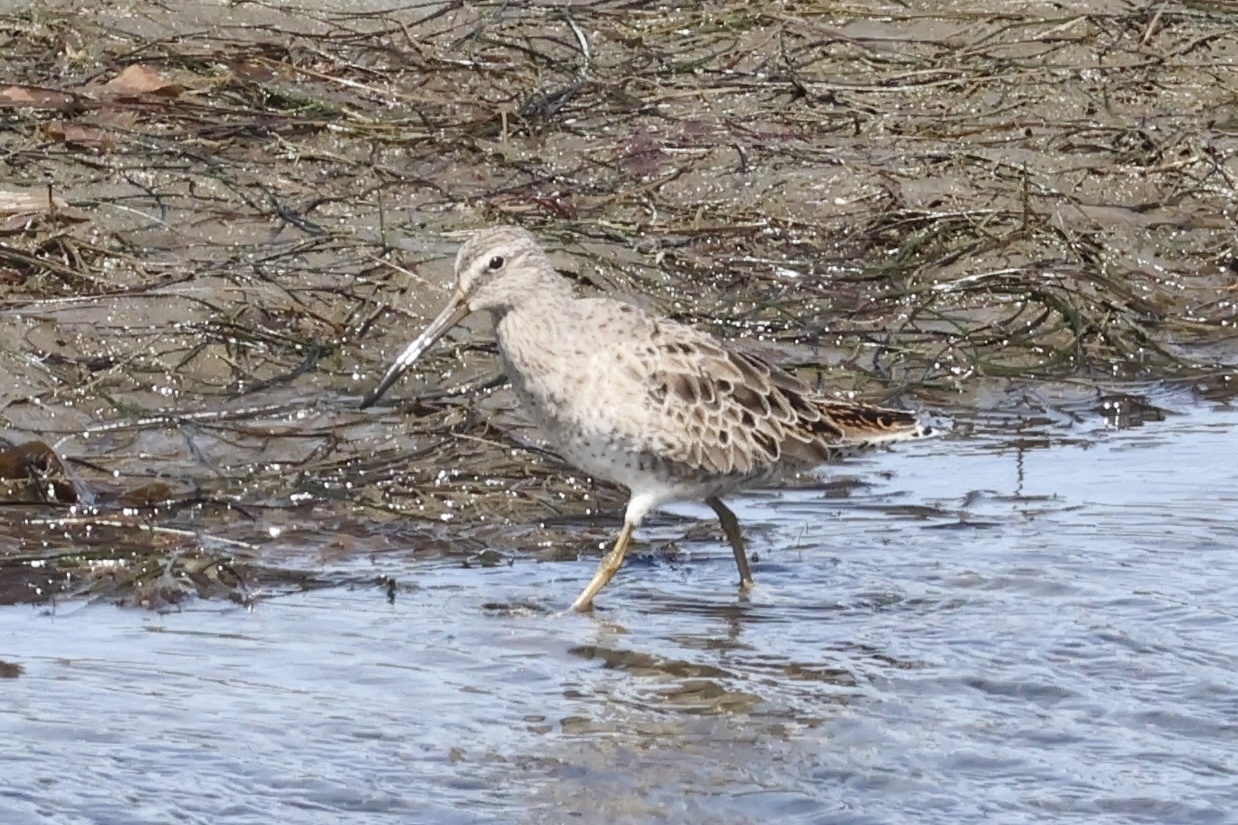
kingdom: Animalia
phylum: Chordata
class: Aves
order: Charadriiformes
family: Scolopacidae
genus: Limnodromus
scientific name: Limnodromus griseus
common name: Short-billed dowitcher
